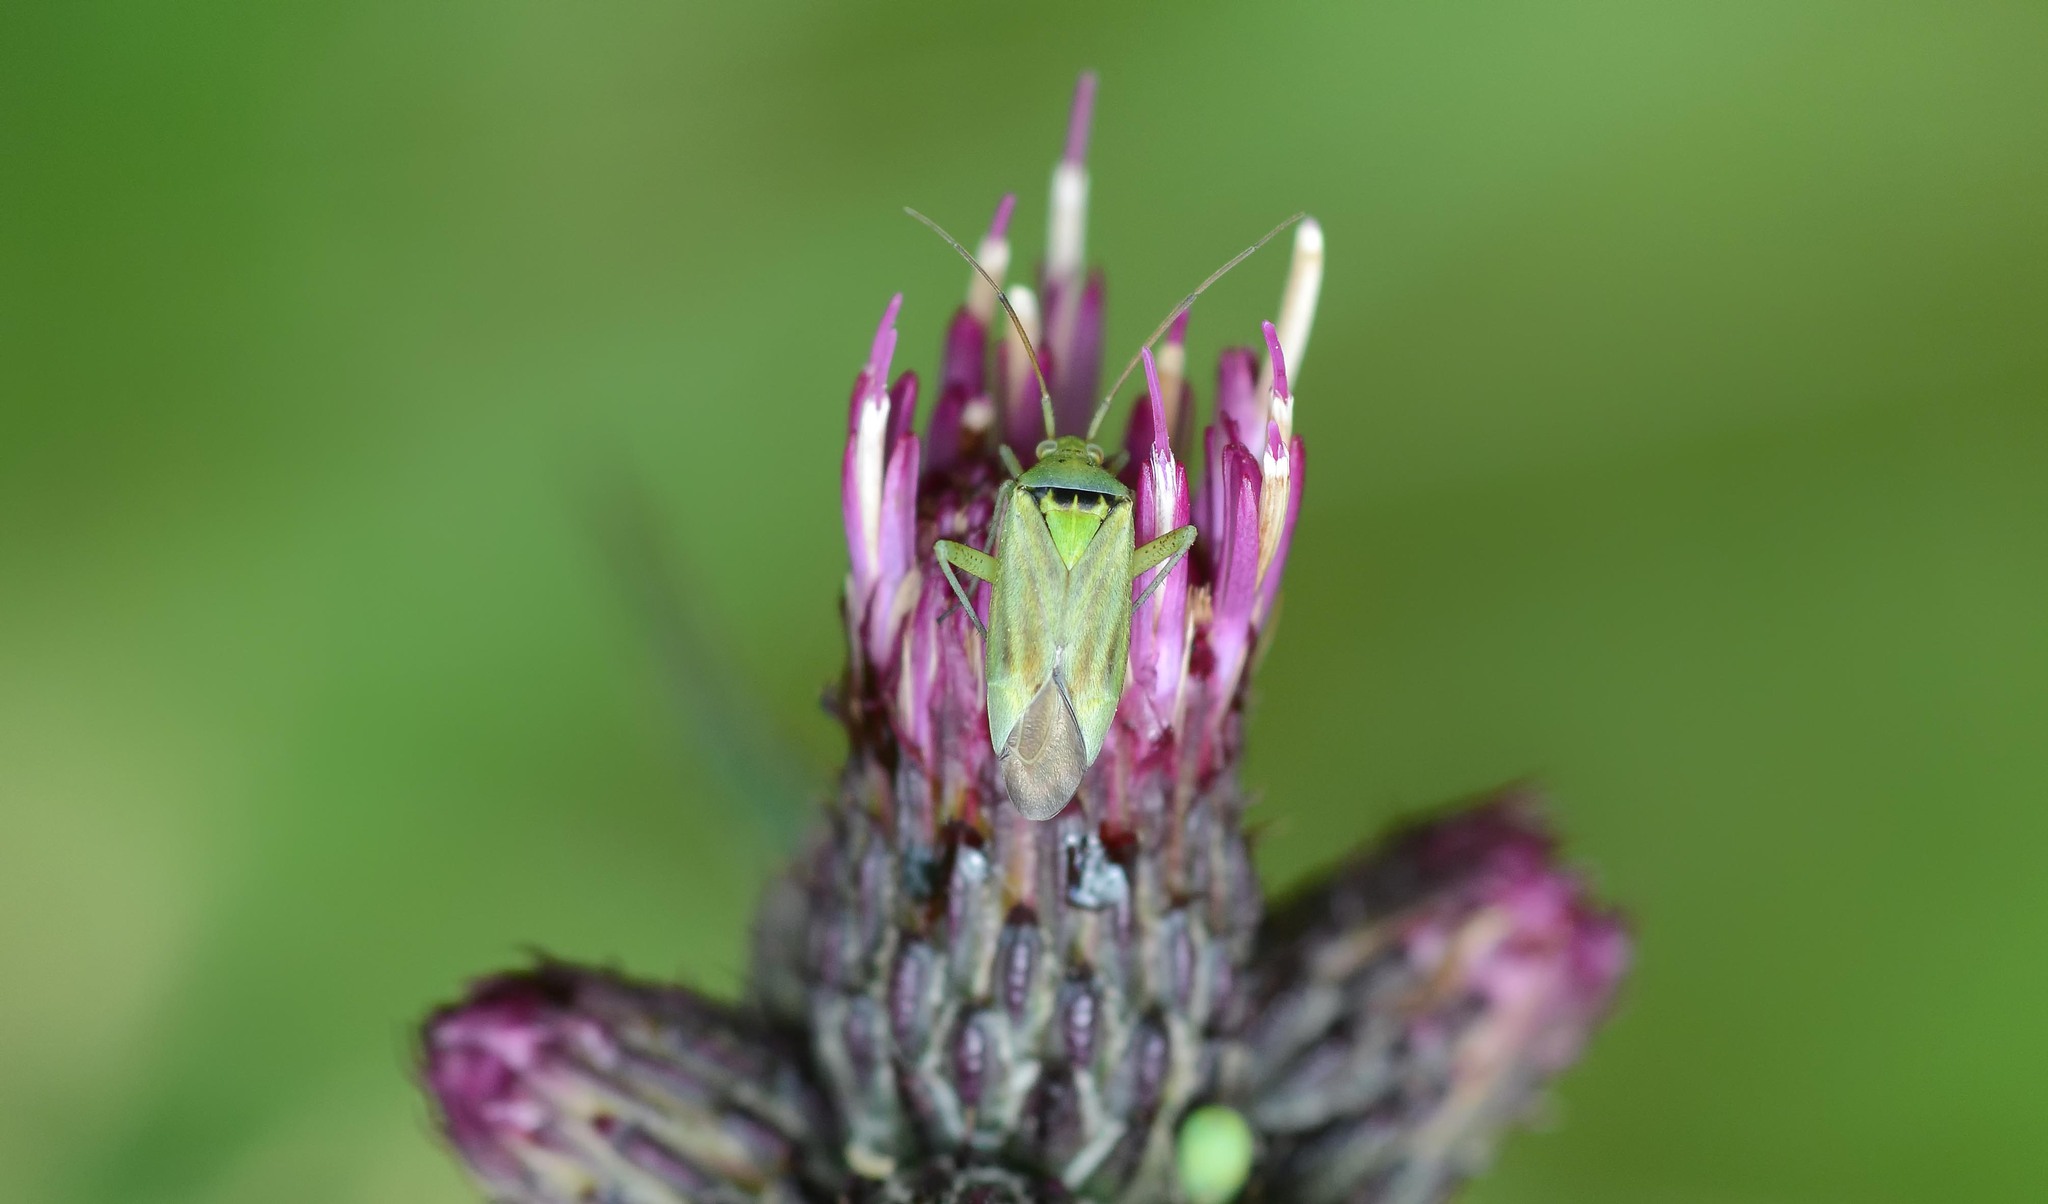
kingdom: Animalia
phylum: Arthropoda
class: Insecta
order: Hemiptera
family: Miridae
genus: Closterotomus
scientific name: Closterotomus norvegicus
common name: Plant bug
